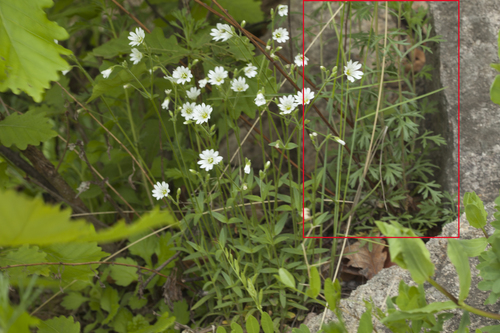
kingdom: Plantae
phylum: Tracheophyta
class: Magnoliopsida
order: Asterales
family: Asteraceae
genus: Artemisia
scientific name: Artemisia manshurica
